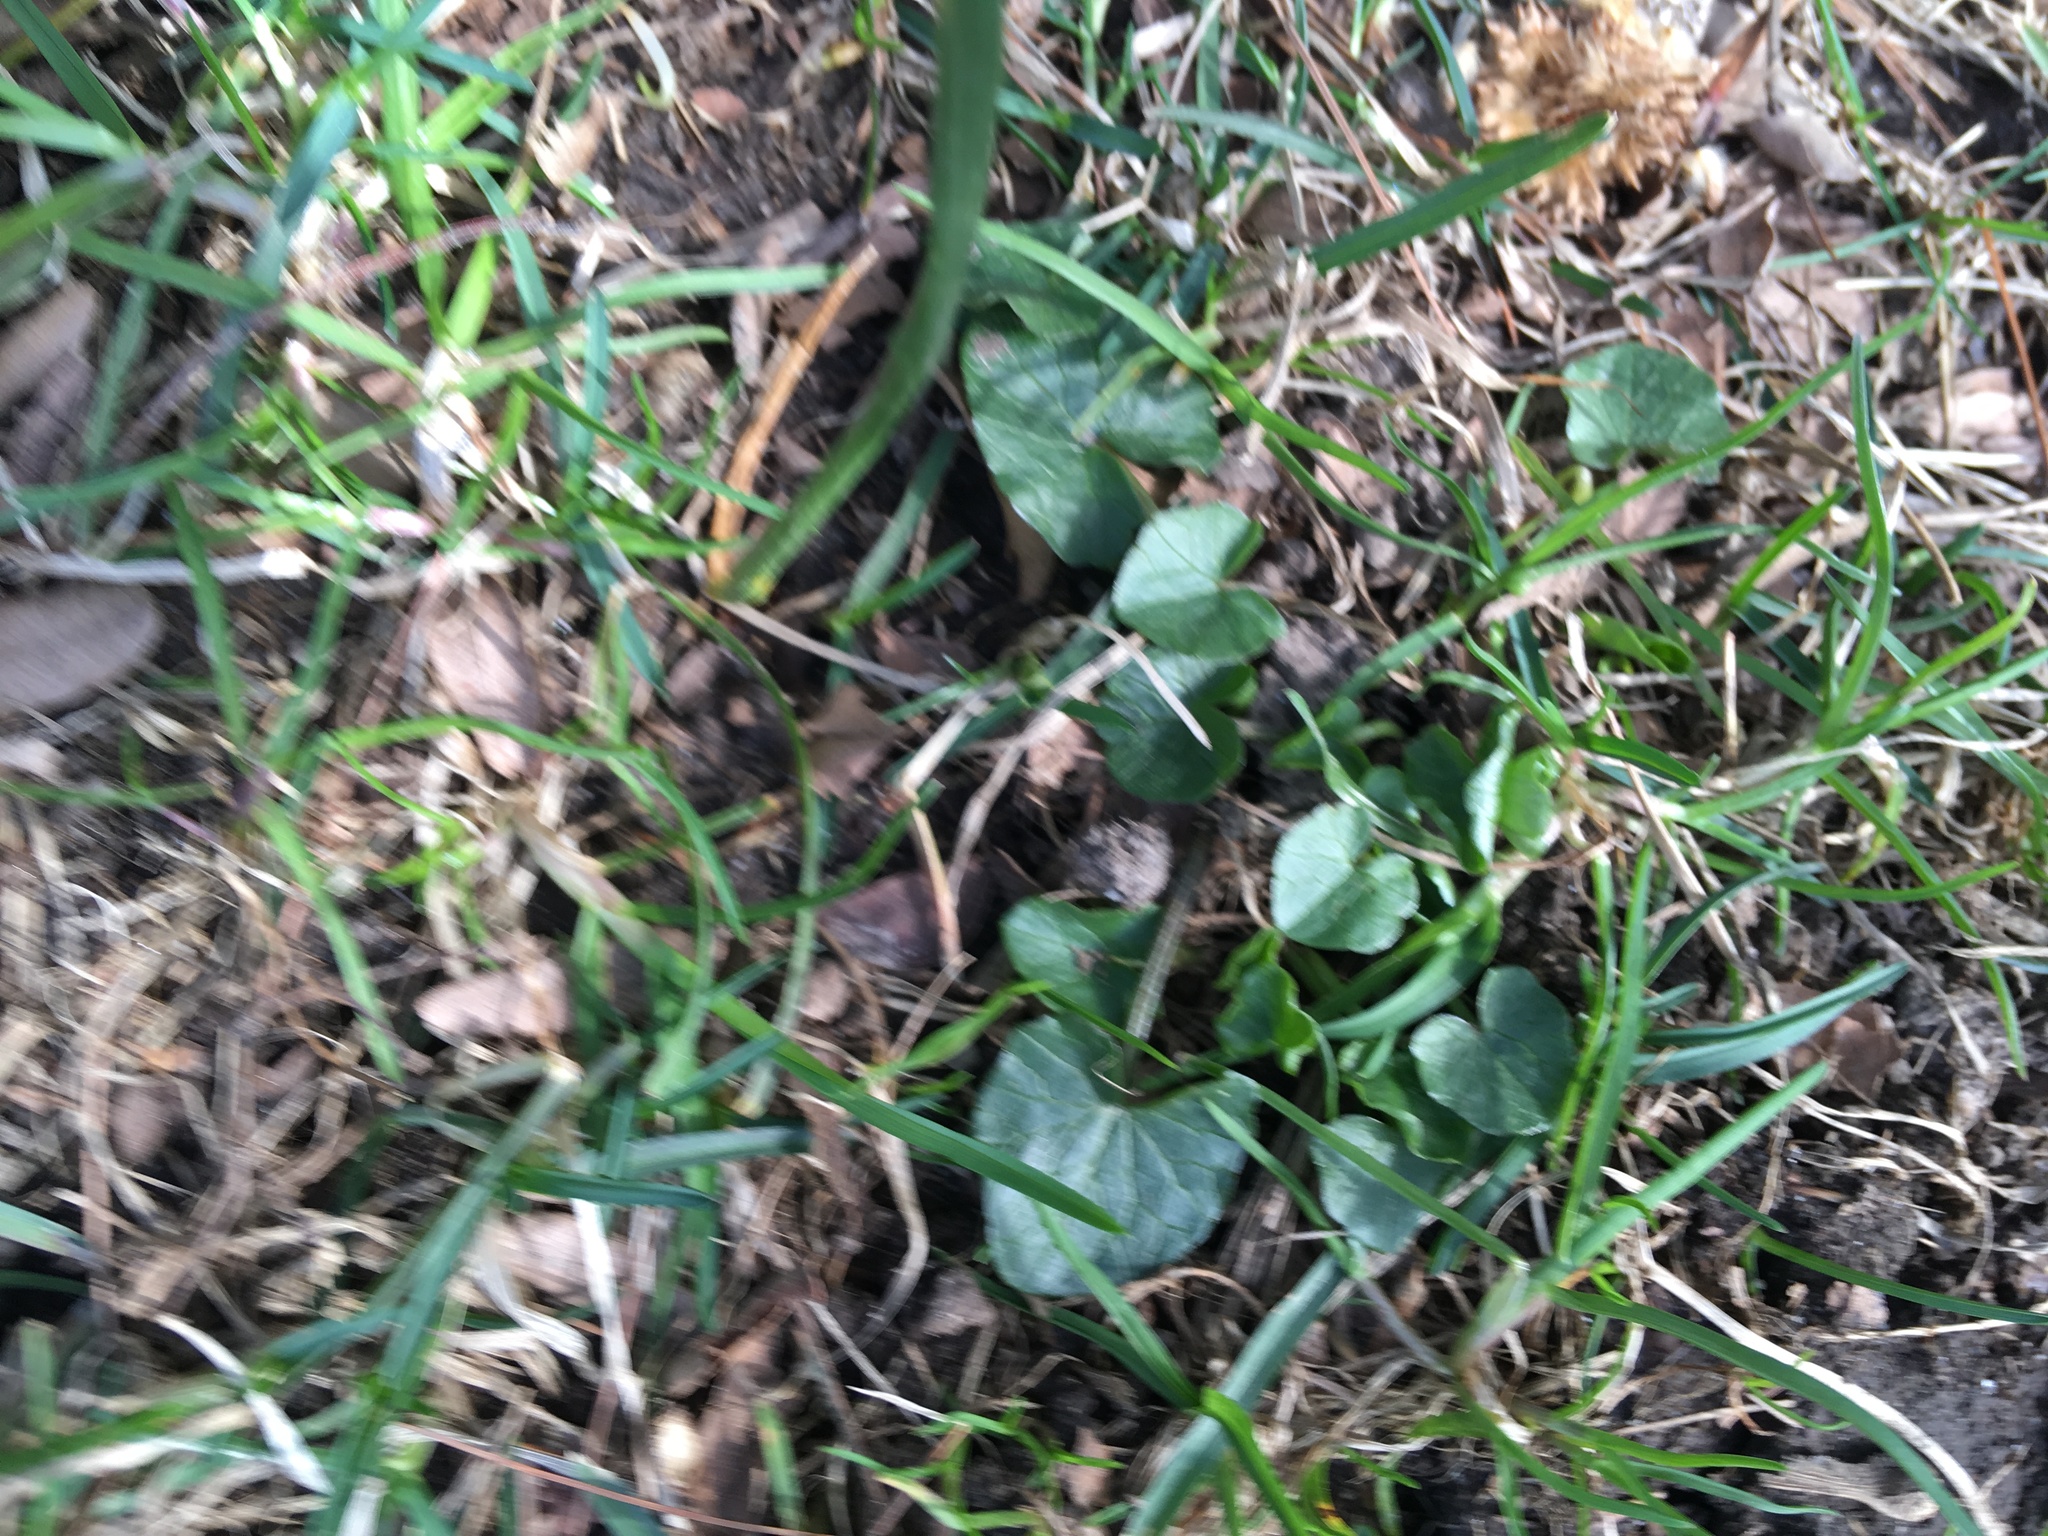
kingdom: Plantae
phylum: Tracheophyta
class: Magnoliopsida
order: Ranunculales
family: Ranunculaceae
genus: Ficaria
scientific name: Ficaria verna
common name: Lesser celandine
